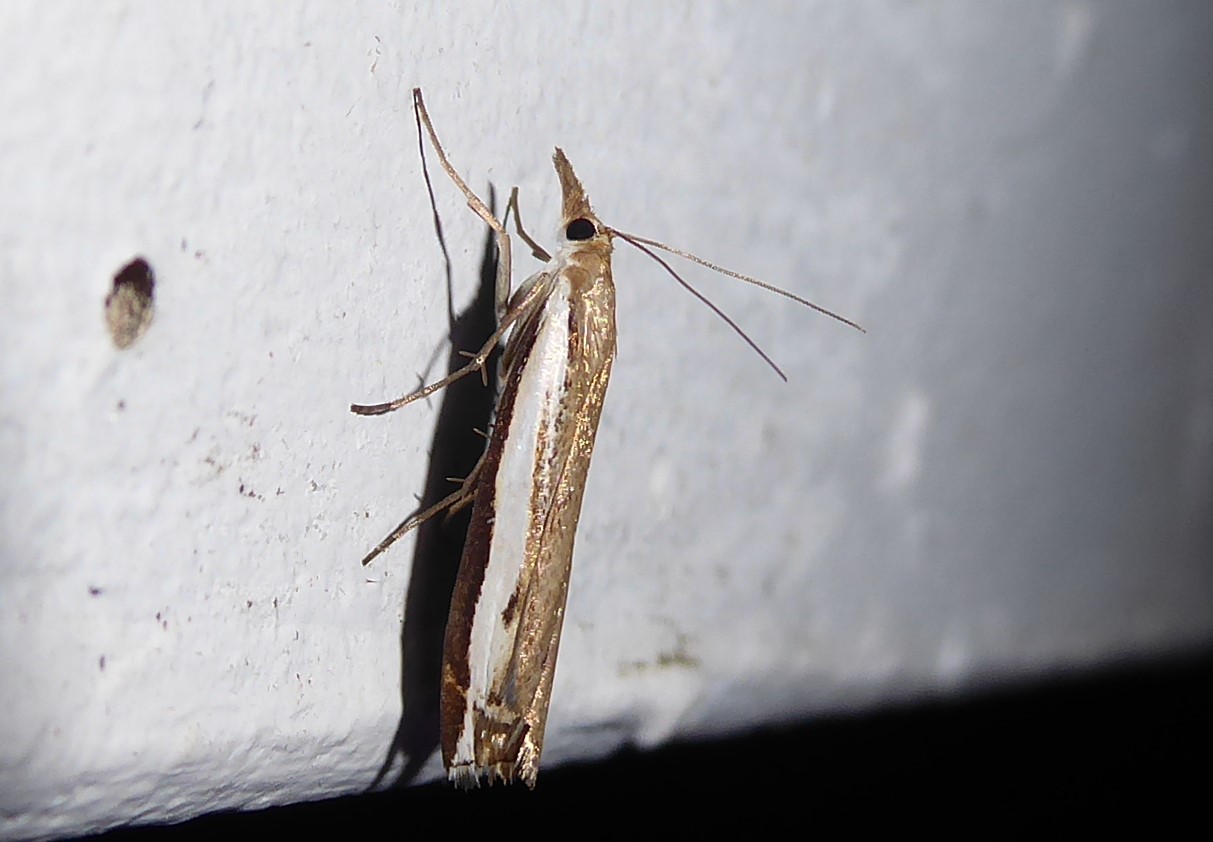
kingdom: Animalia
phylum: Arthropoda
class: Insecta
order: Lepidoptera
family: Crambidae
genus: Orocrambus
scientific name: Orocrambus flexuosellus
